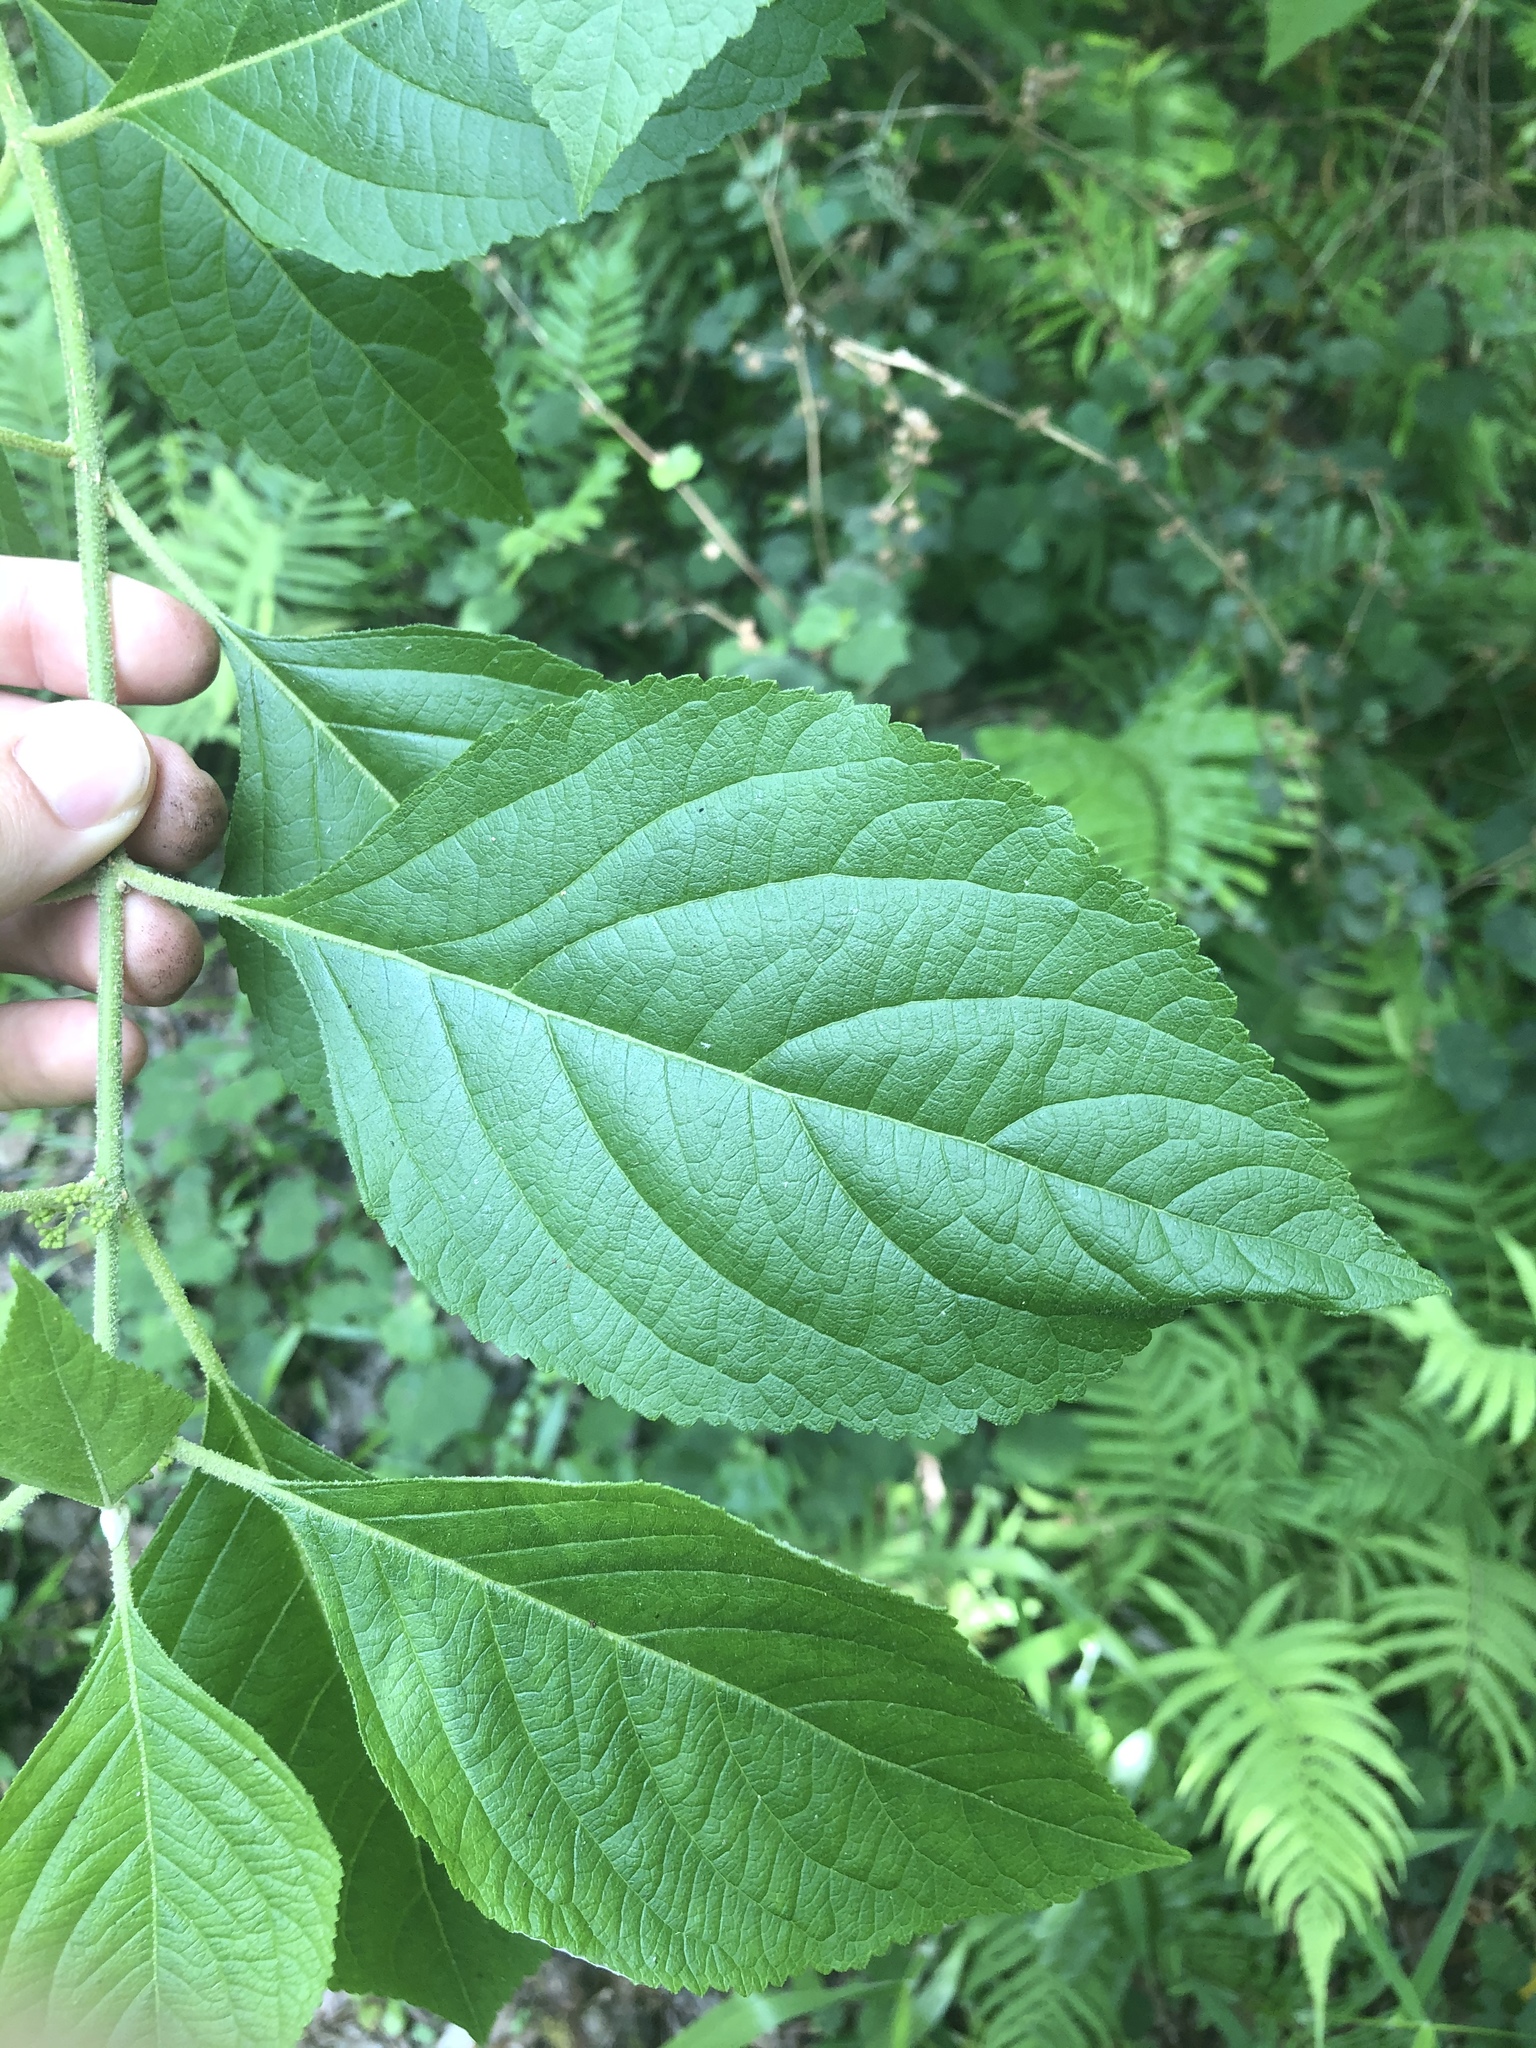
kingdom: Plantae
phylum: Tracheophyta
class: Magnoliopsida
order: Lamiales
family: Lamiaceae
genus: Callicarpa
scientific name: Callicarpa americana
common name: American beautyberry
